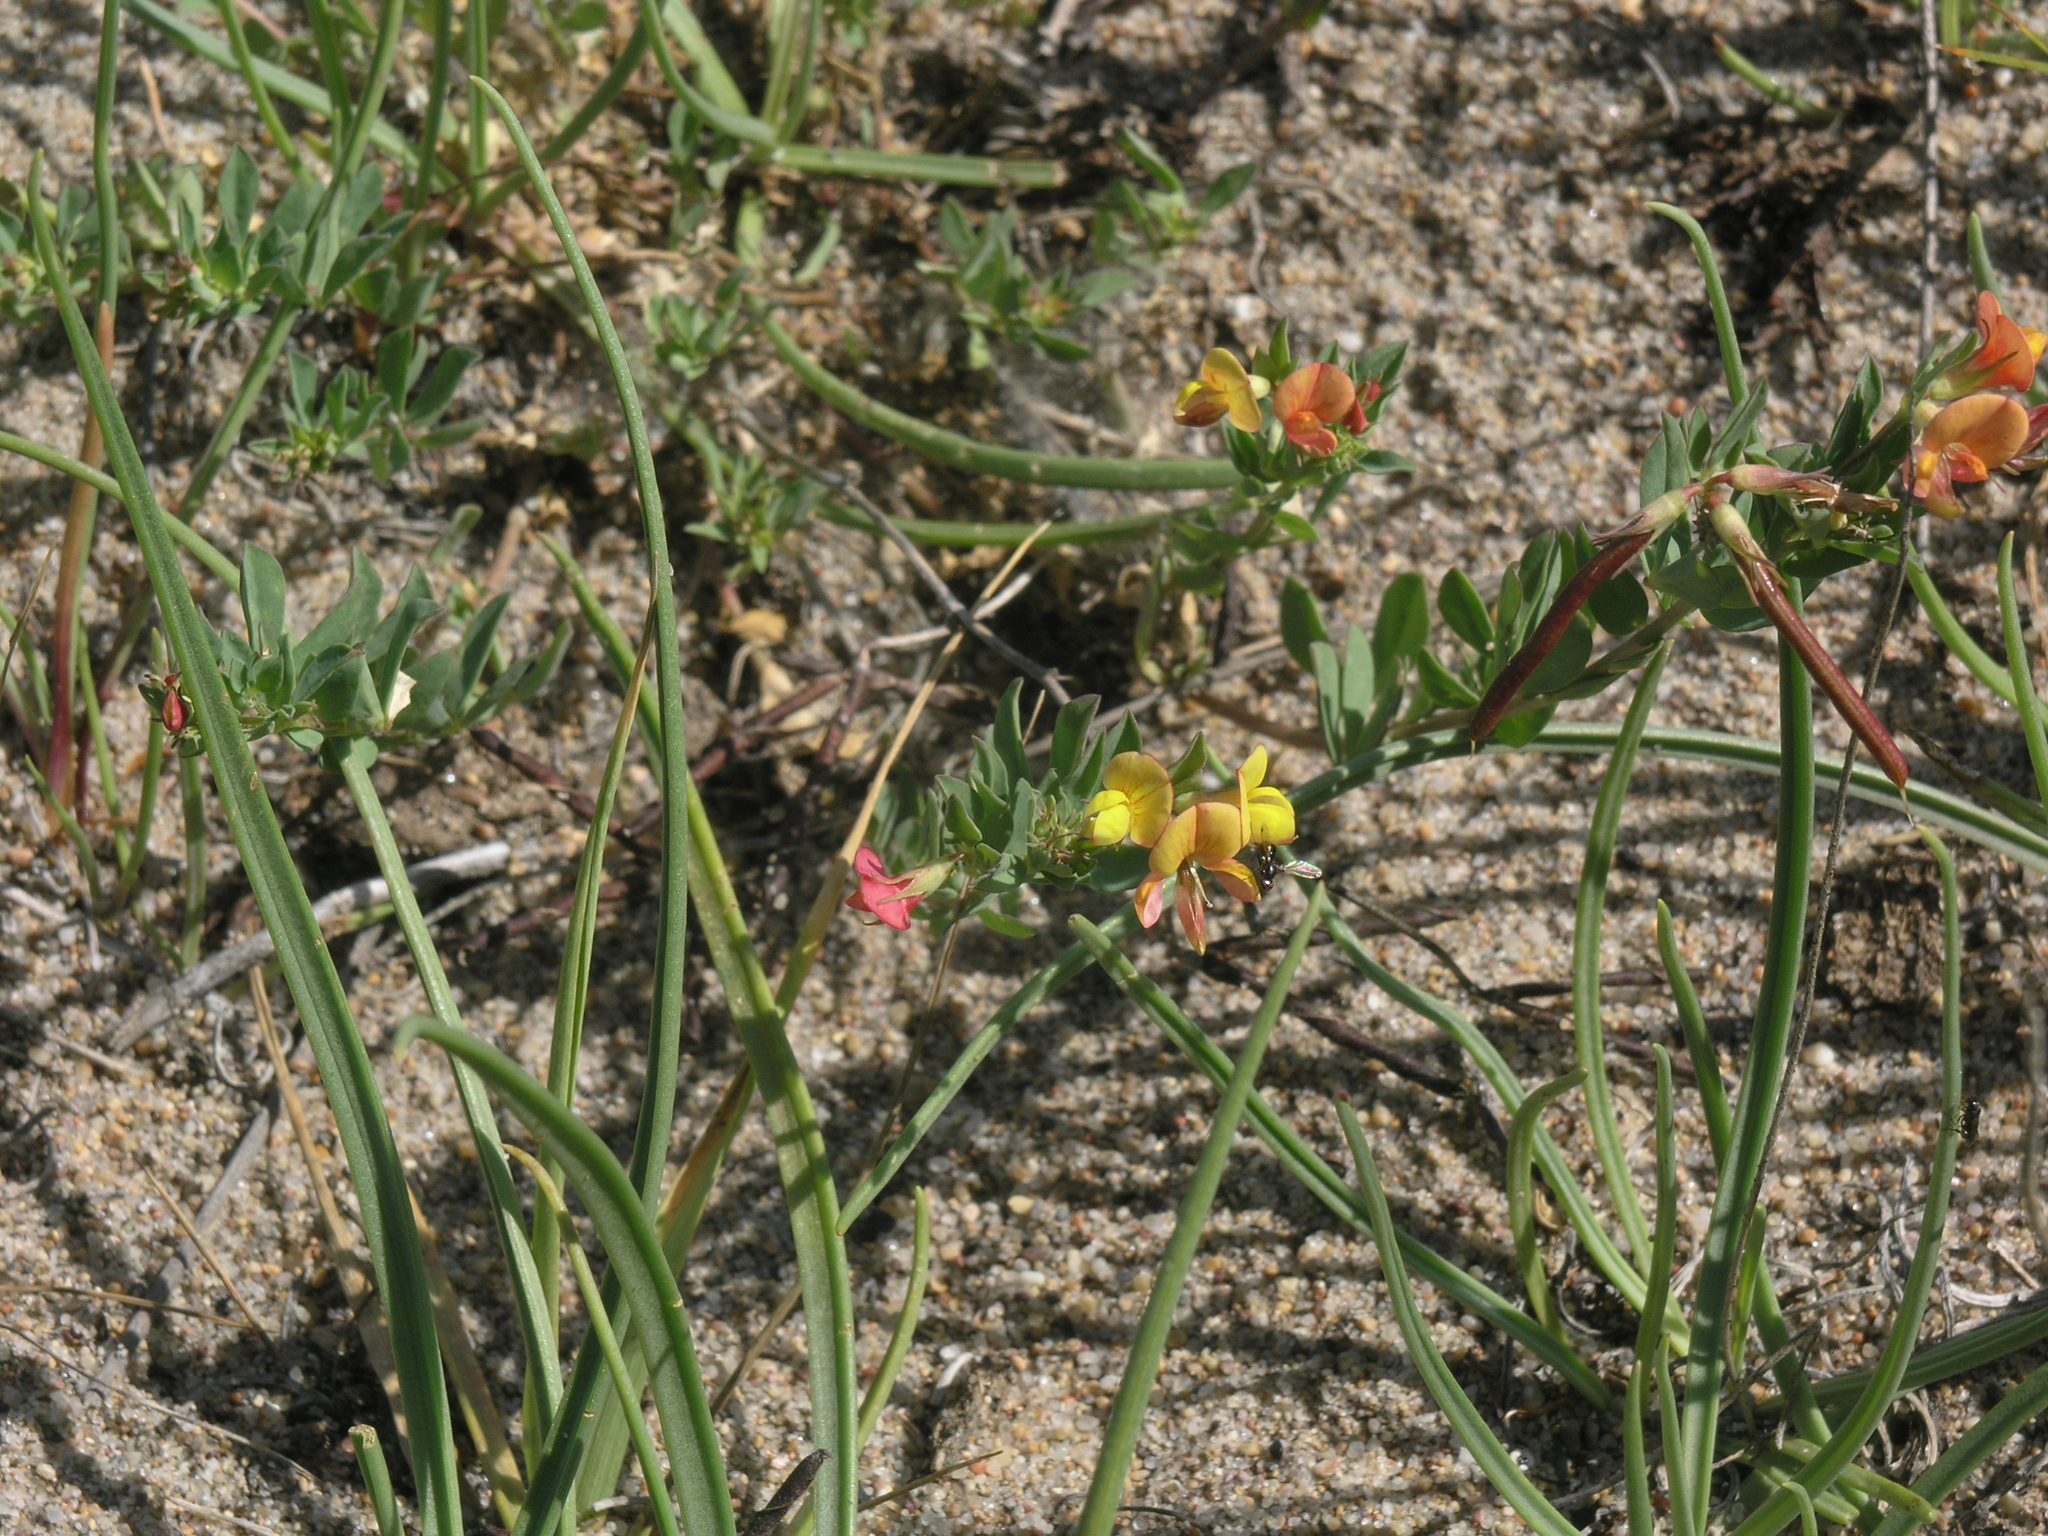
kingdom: Plantae
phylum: Tracheophyta
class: Magnoliopsida
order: Fabales
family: Fabaceae
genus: Lotus
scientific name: Lotus krylovii
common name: Krylov's bird's-foot trefoil
